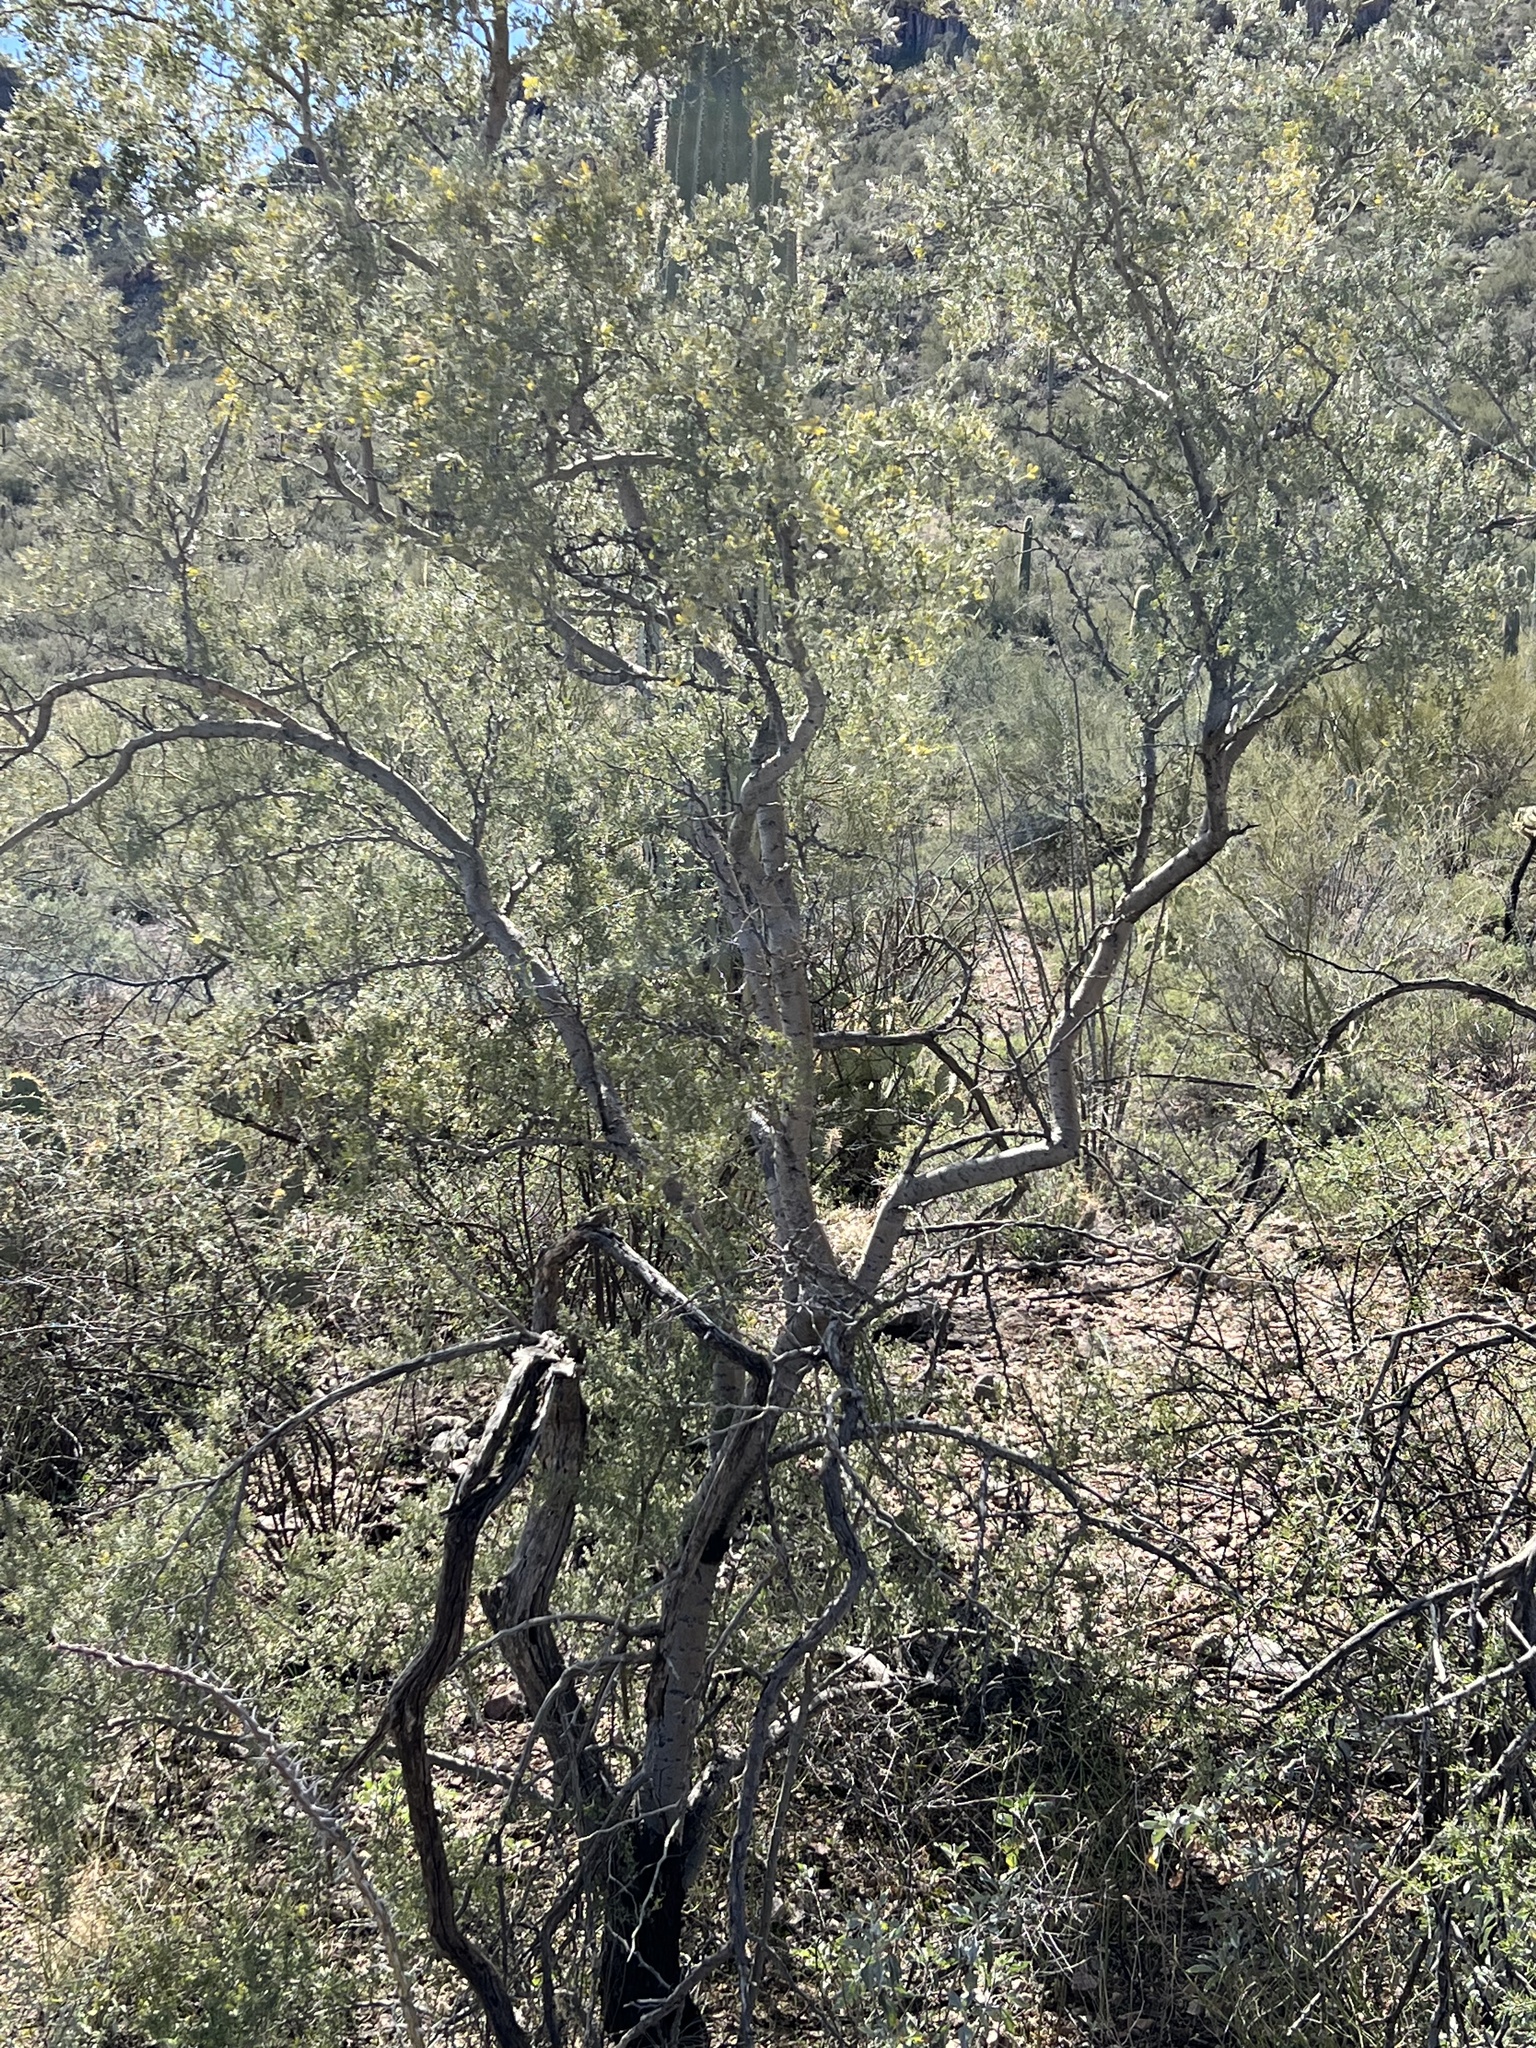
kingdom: Plantae
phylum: Tracheophyta
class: Magnoliopsida
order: Fabales
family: Fabaceae
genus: Olneya
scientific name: Olneya tesota
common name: Desert ironwood
